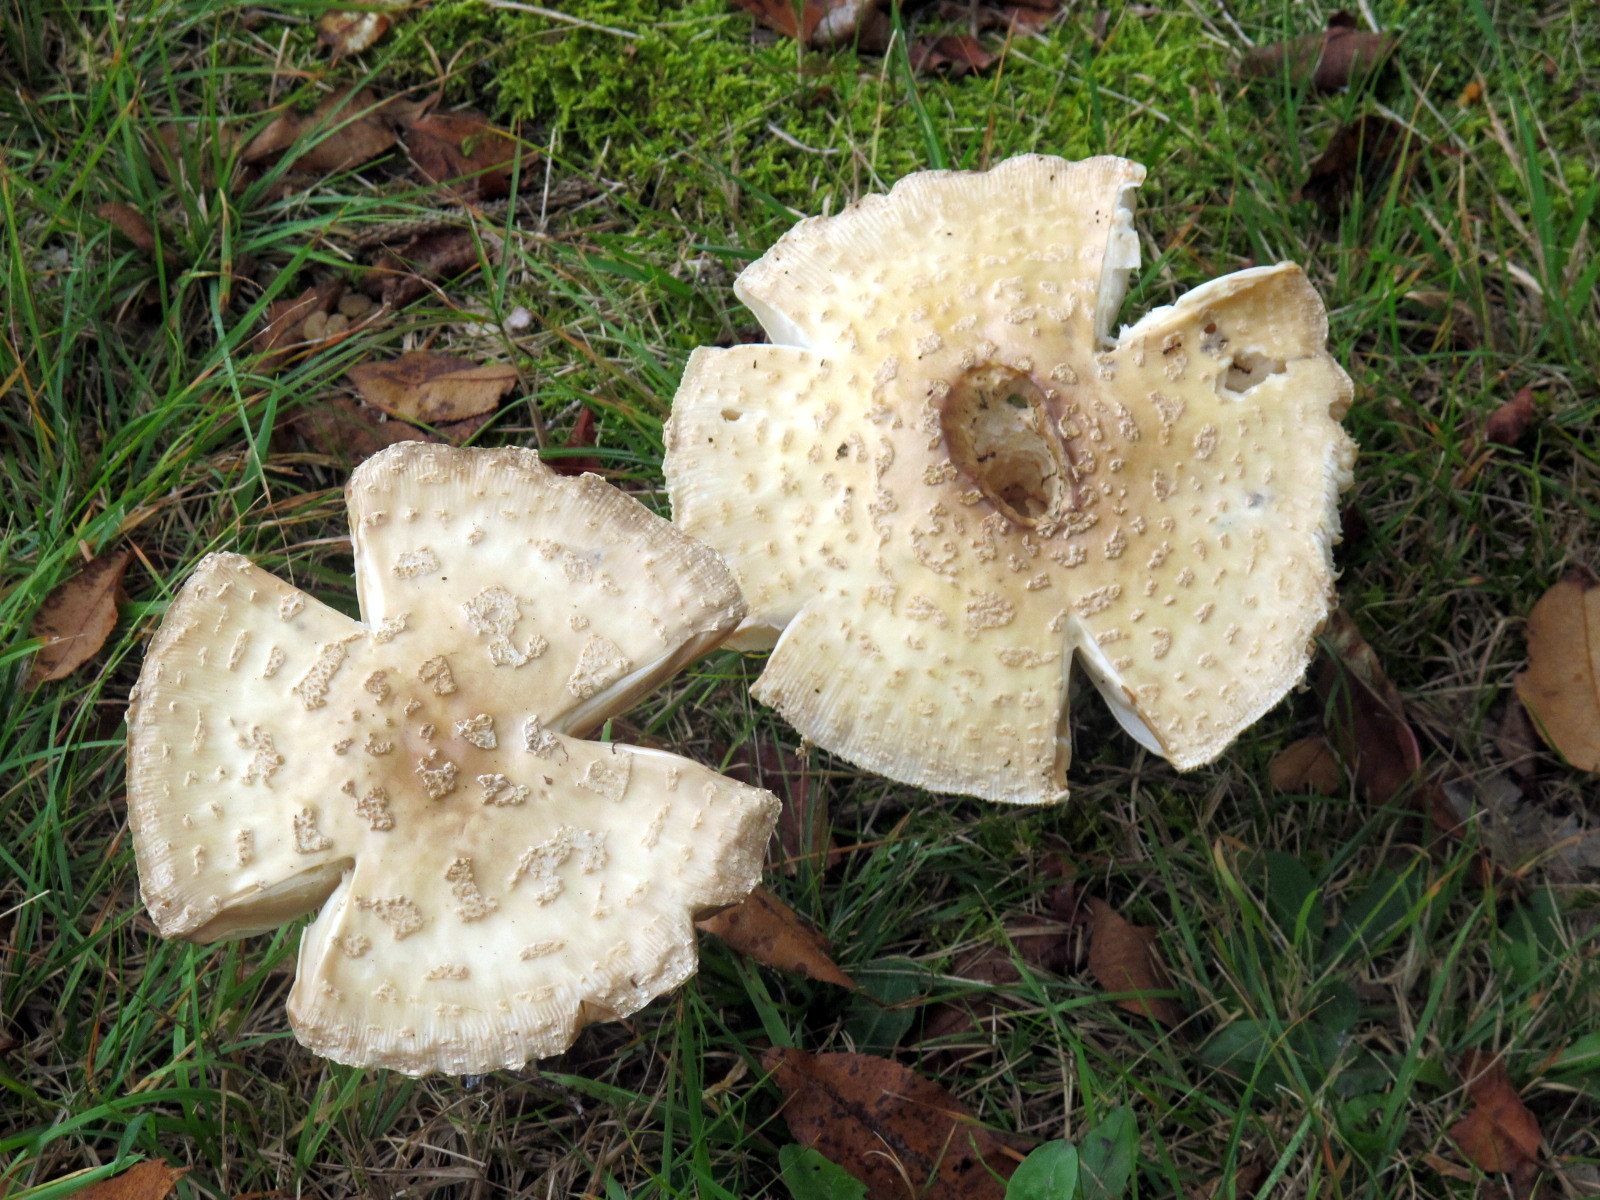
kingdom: Fungi
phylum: Basidiomycota
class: Agaricomycetes
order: Agaricales
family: Amanitaceae
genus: Amanita
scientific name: Amanita muscaria
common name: Fly agaric
